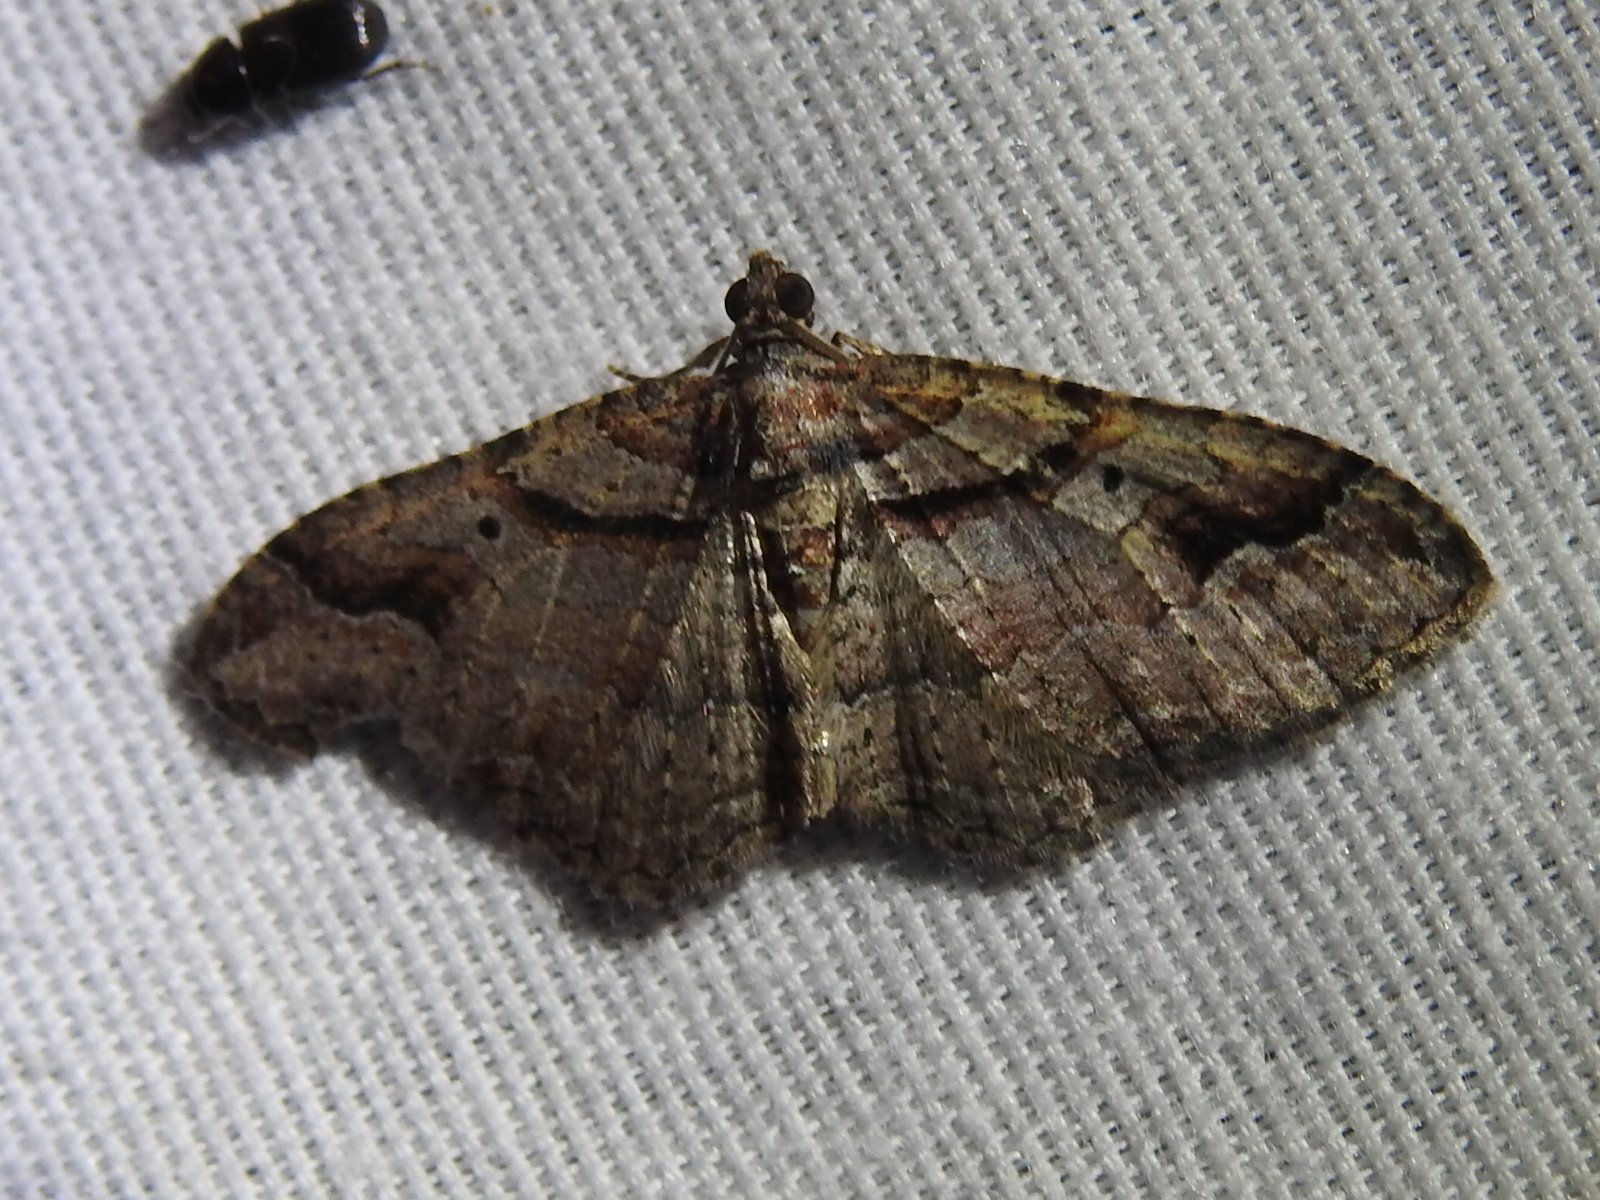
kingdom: Animalia
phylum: Arthropoda
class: Insecta
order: Lepidoptera
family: Geometridae
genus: Costaconvexa
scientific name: Costaconvexa centrostrigaria
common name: Bent-line carpet
